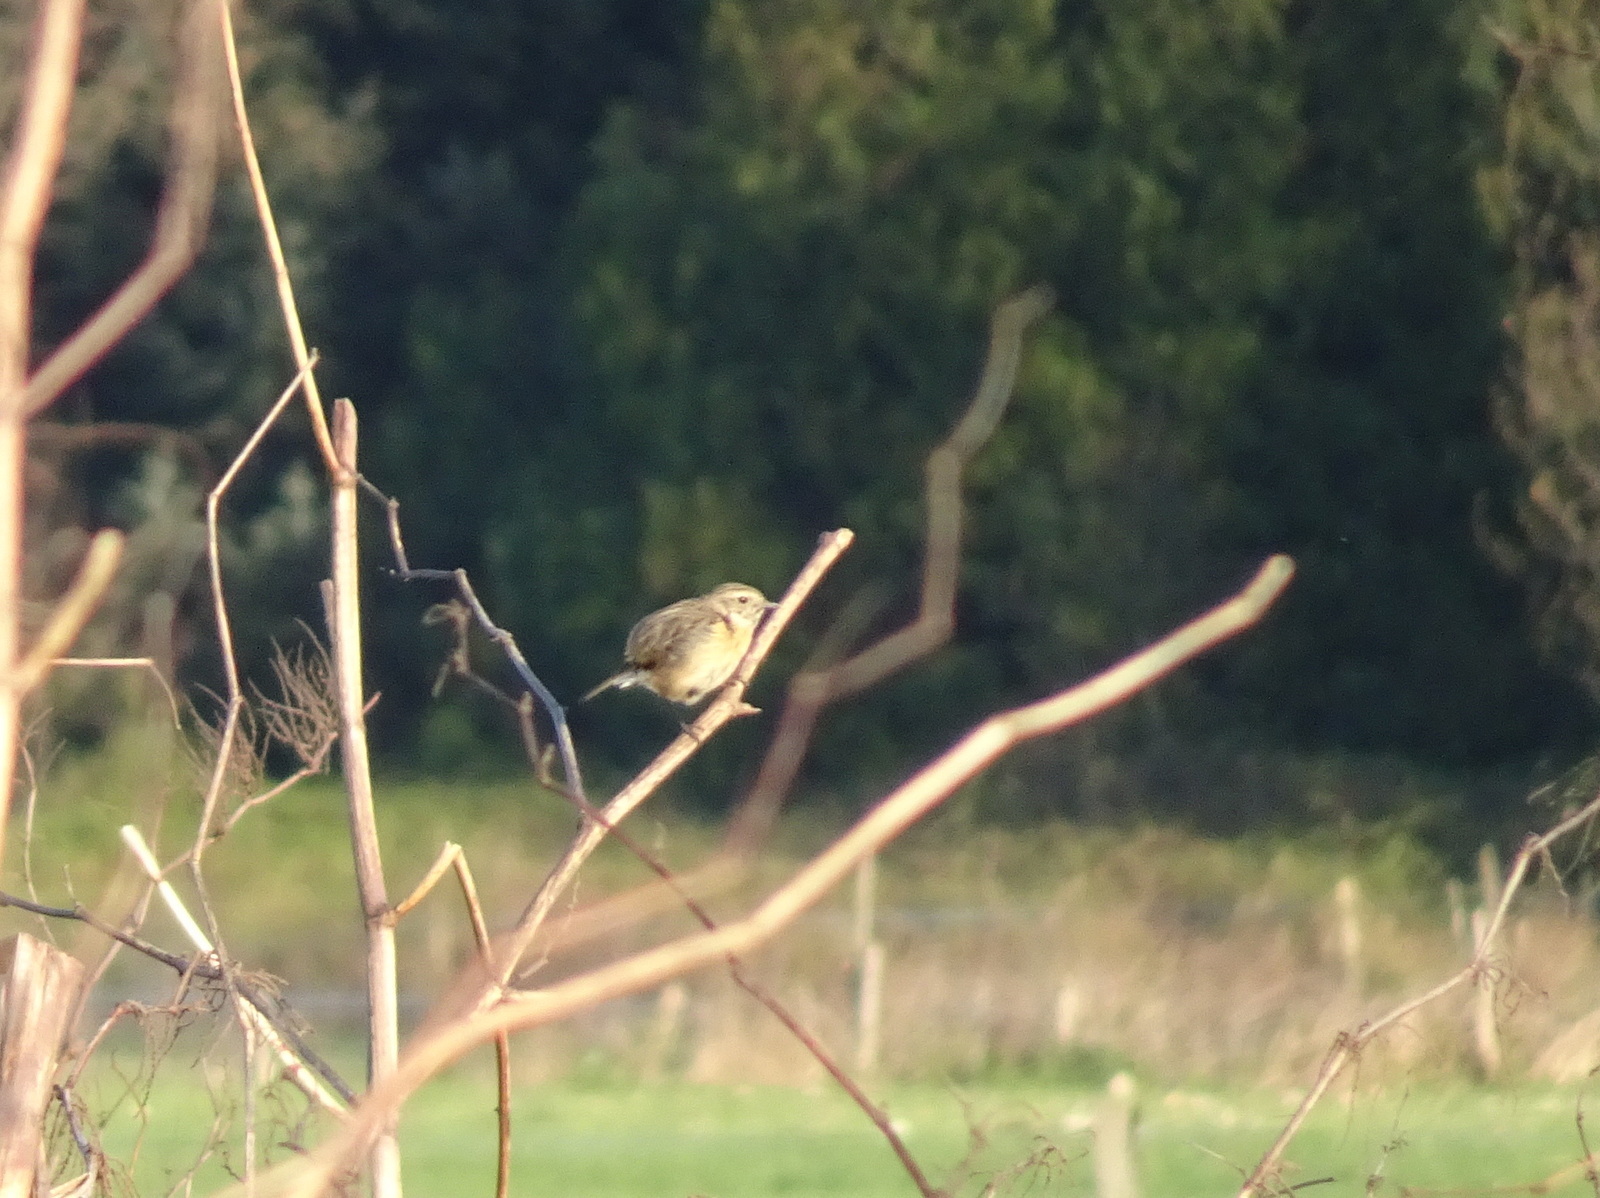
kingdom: Animalia
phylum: Chordata
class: Aves
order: Passeriformes
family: Muscicapidae
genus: Saxicola
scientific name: Saxicola
